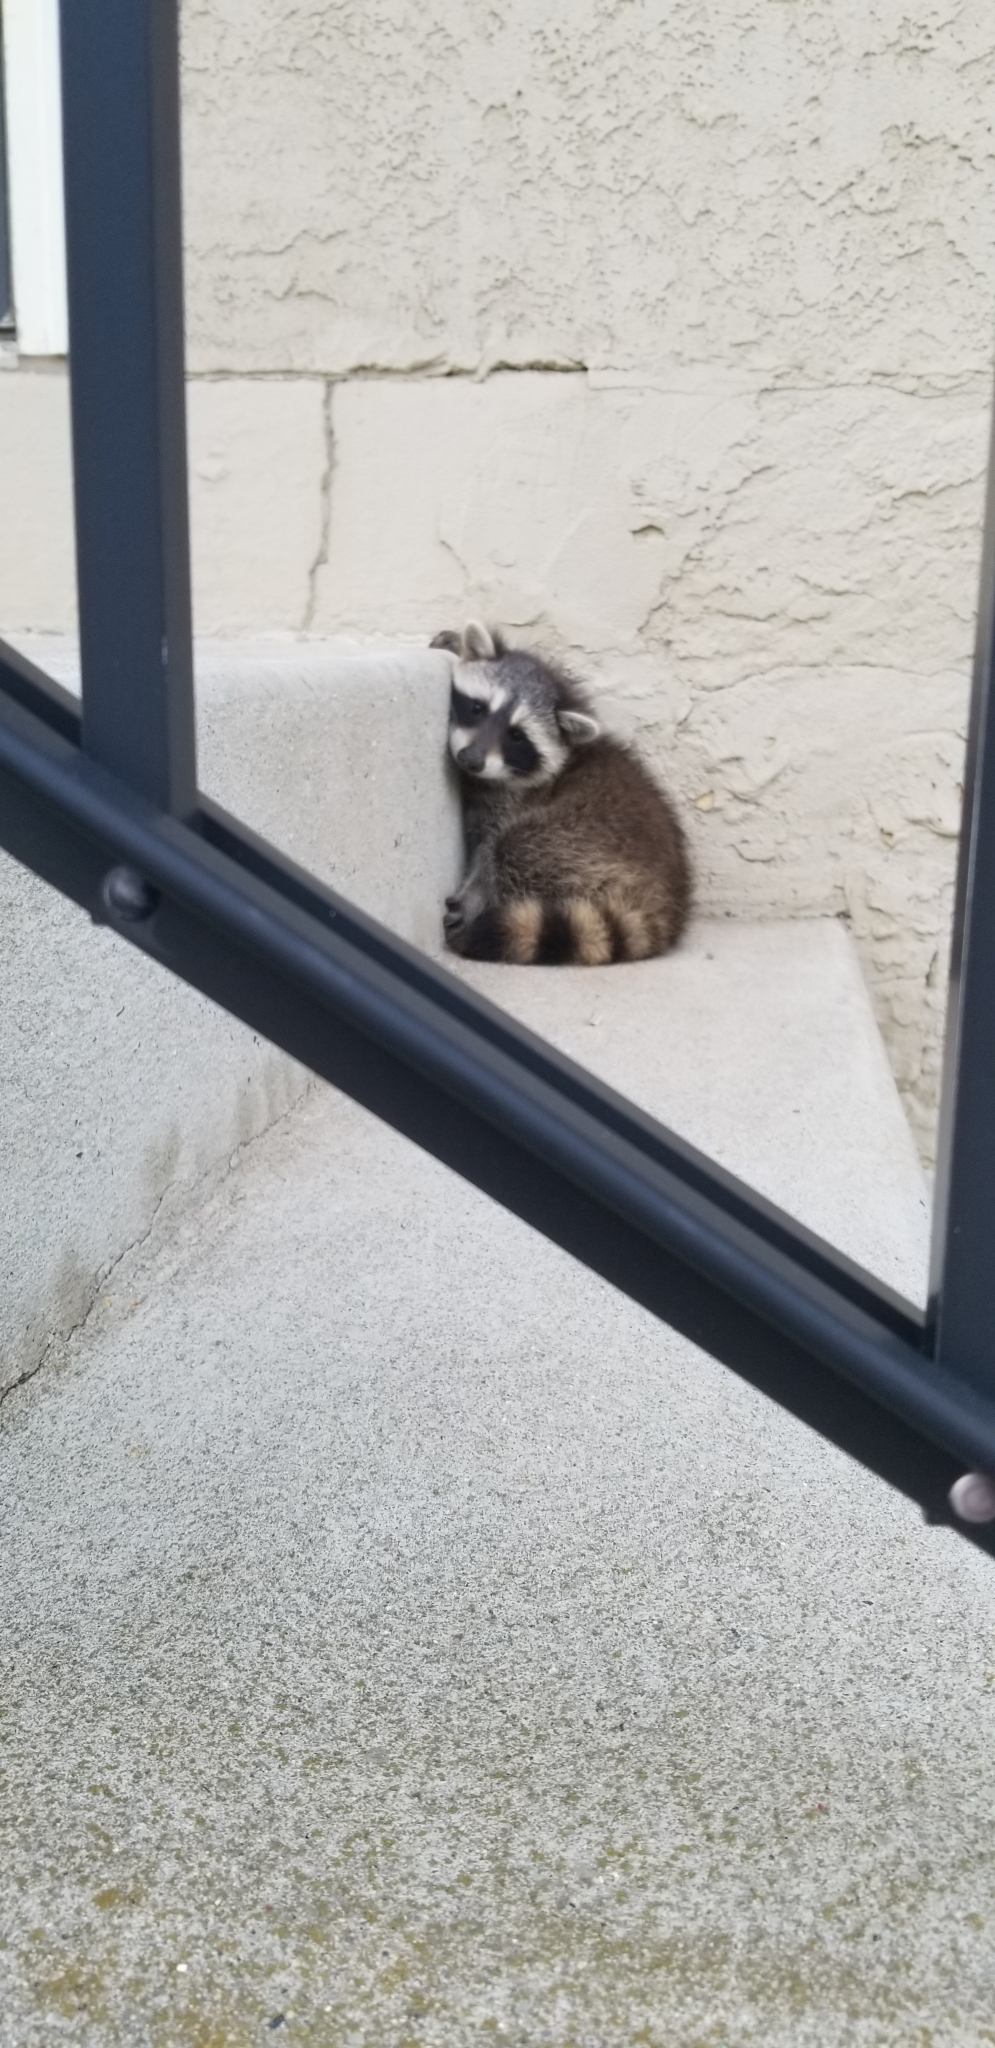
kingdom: Animalia
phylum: Chordata
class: Mammalia
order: Carnivora
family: Procyonidae
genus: Procyon
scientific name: Procyon lotor
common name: Raccoon
